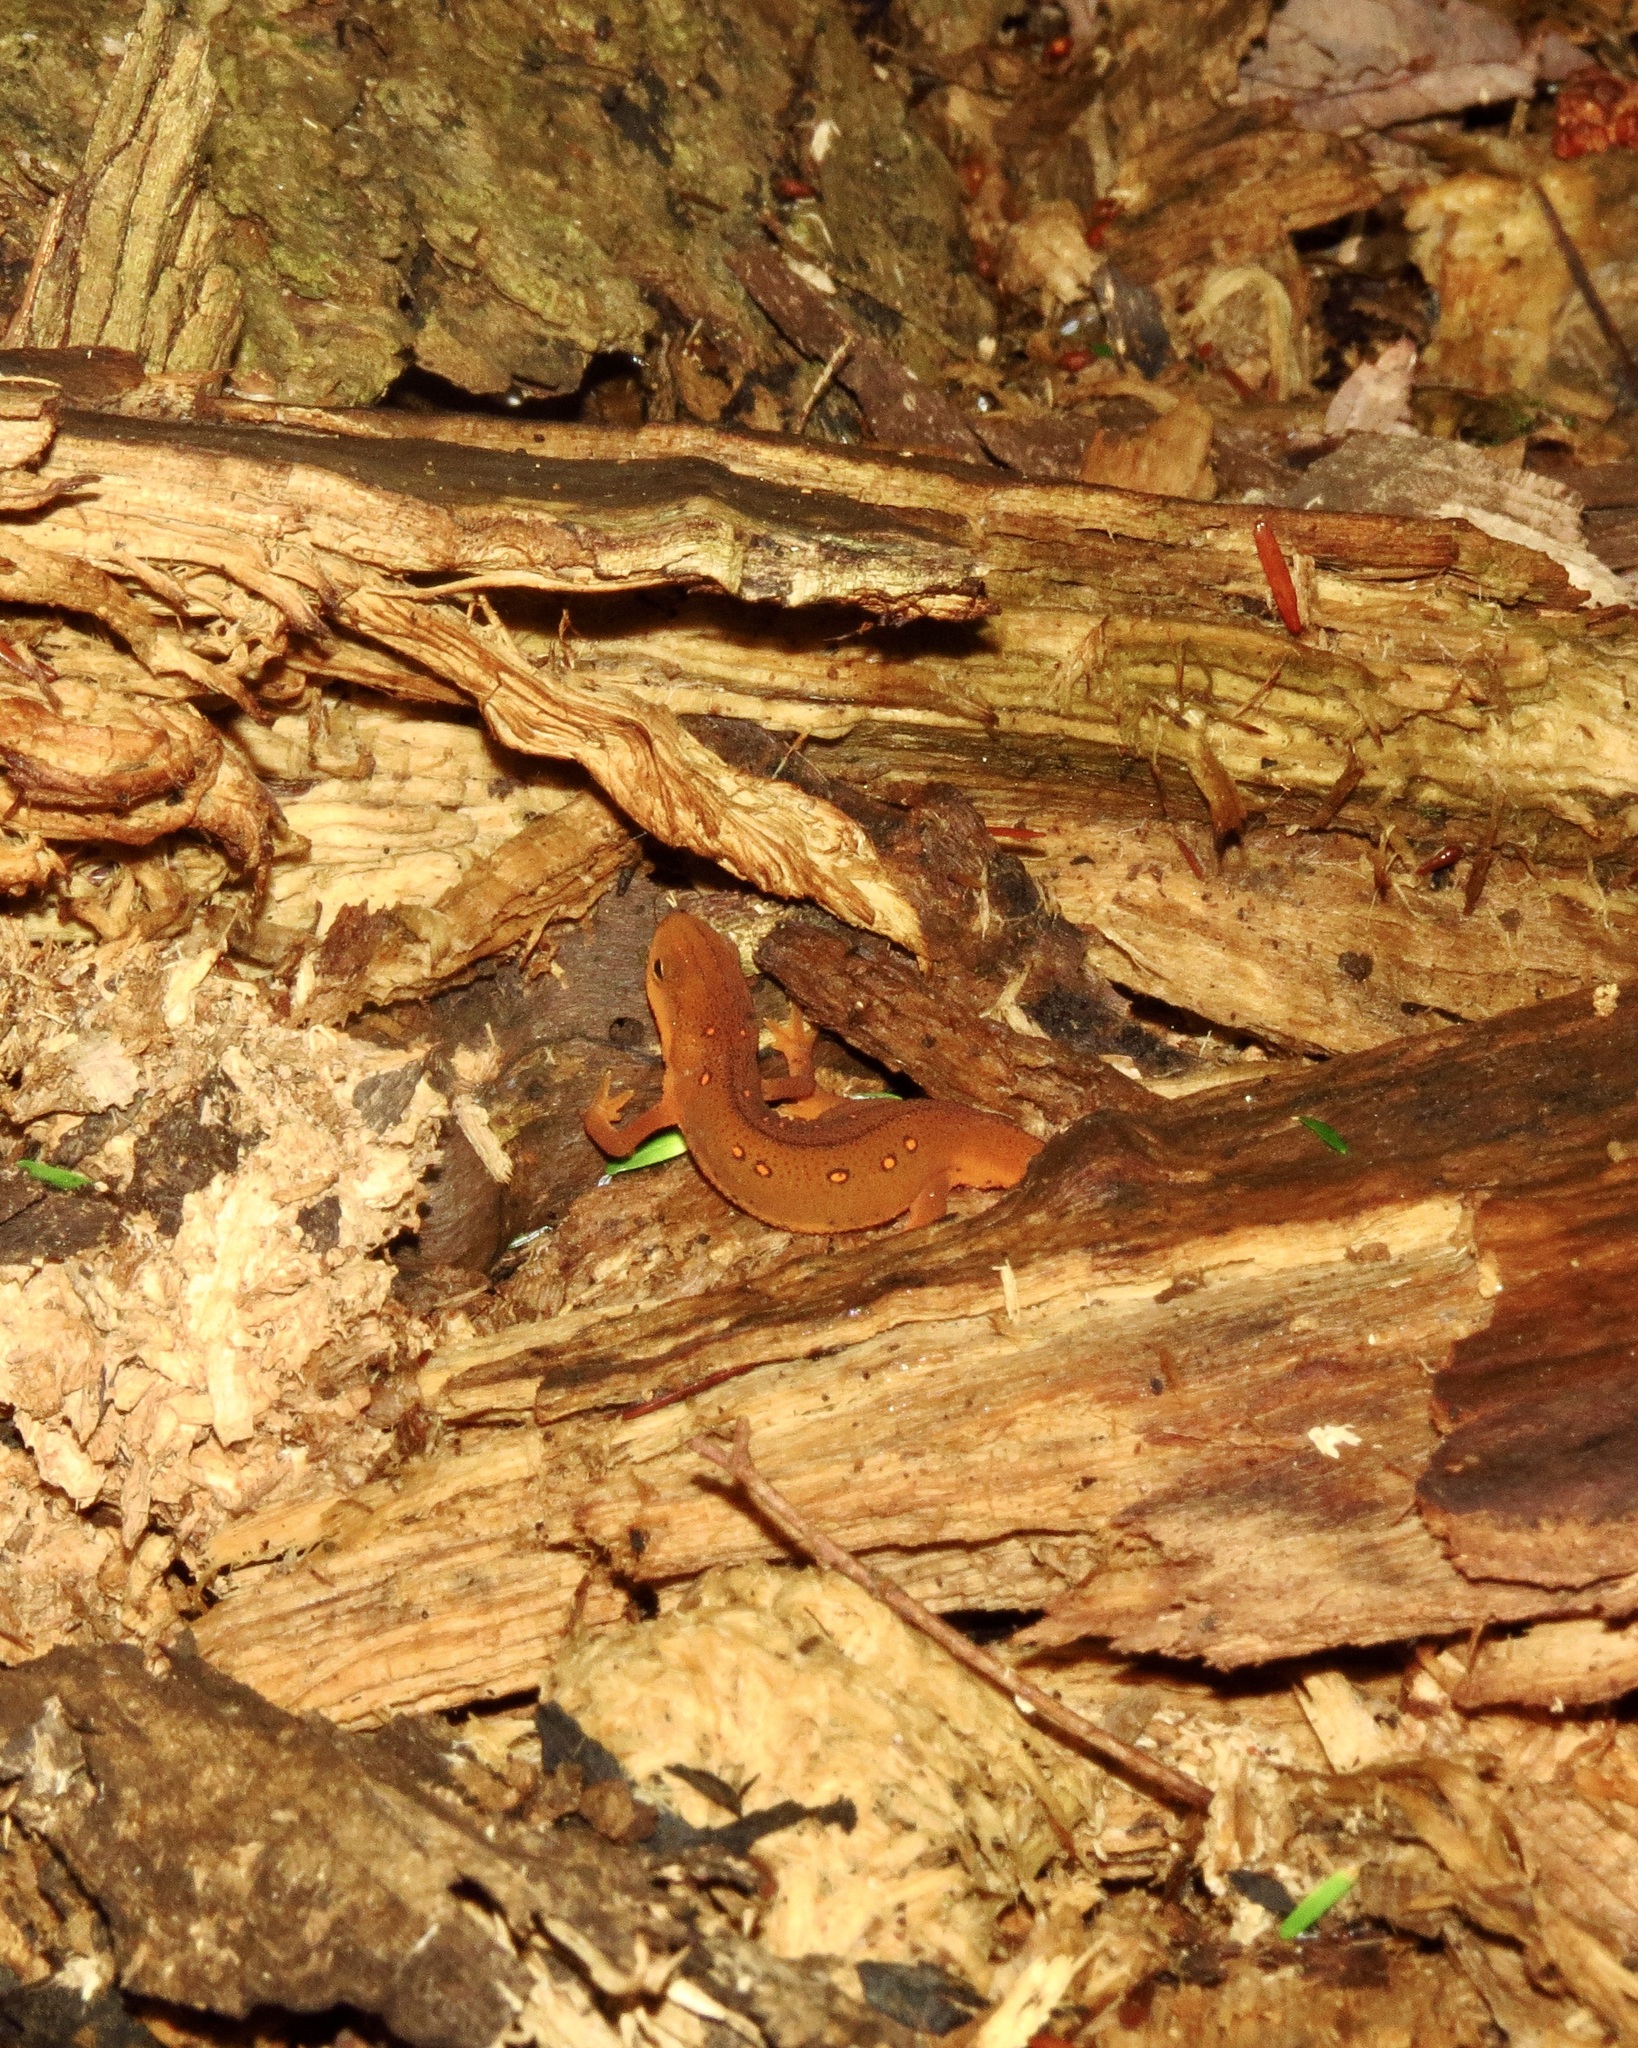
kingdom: Animalia
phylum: Chordata
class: Amphibia
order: Caudata
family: Salamandridae
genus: Notophthalmus
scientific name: Notophthalmus viridescens
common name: Eastern newt
